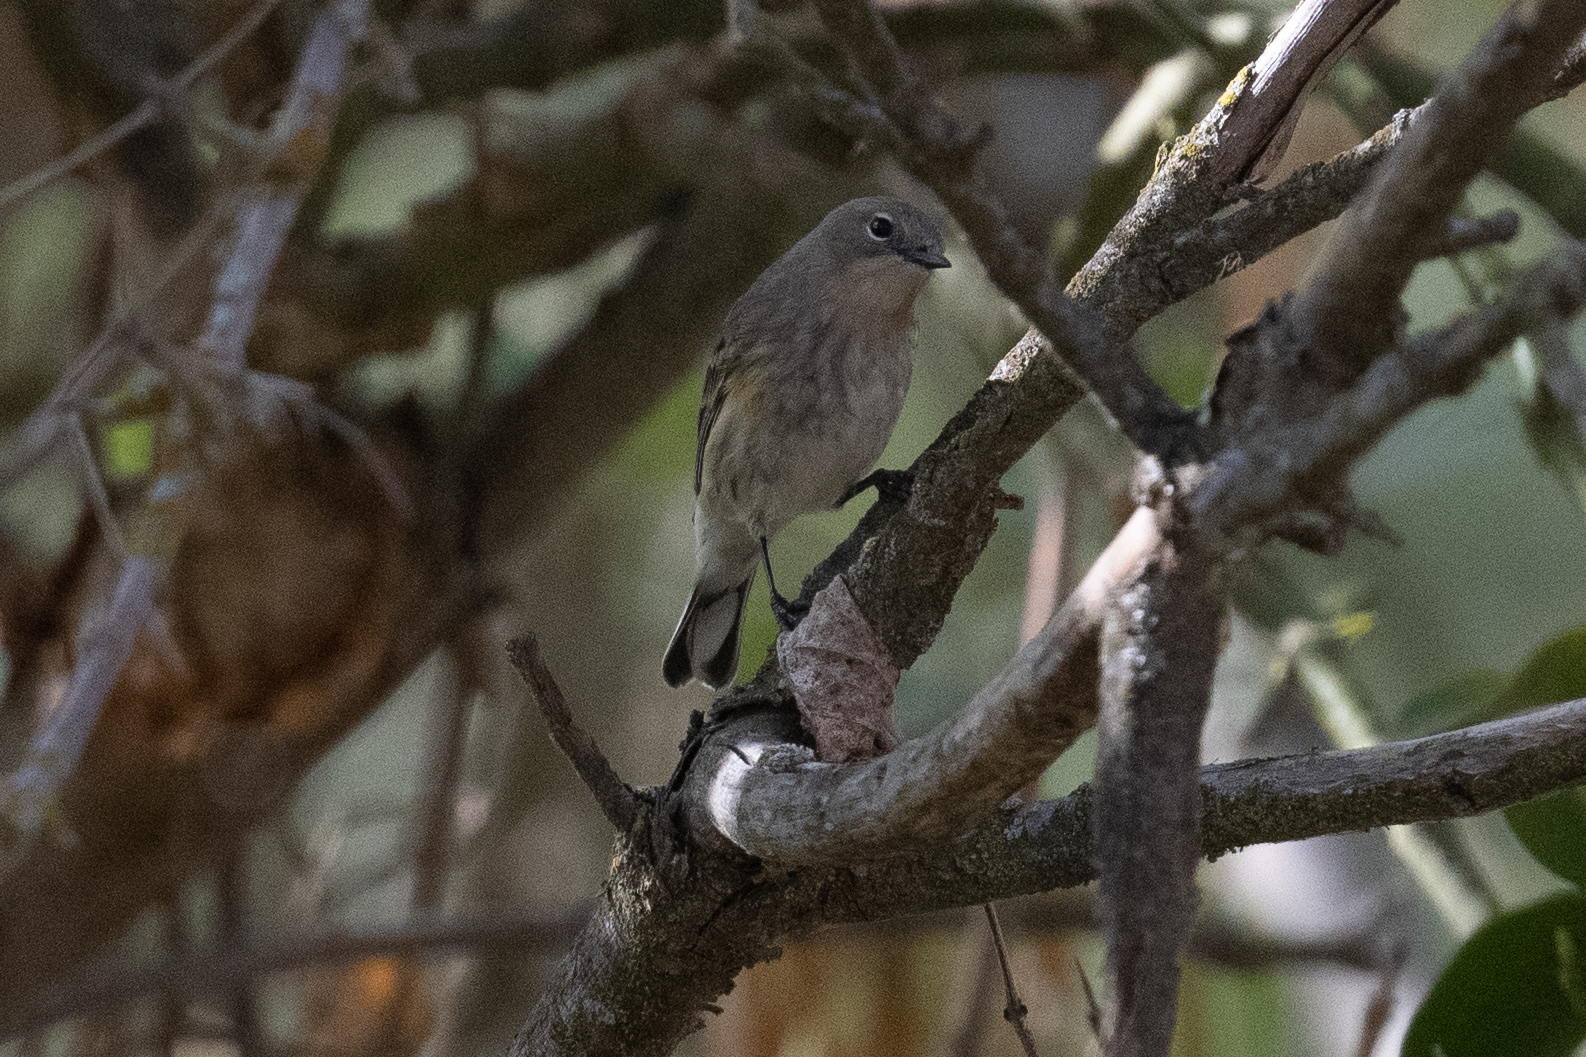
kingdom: Animalia
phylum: Chordata
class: Aves
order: Passeriformes
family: Parulidae
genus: Setophaga
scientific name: Setophaga coronata
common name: Myrtle warbler
